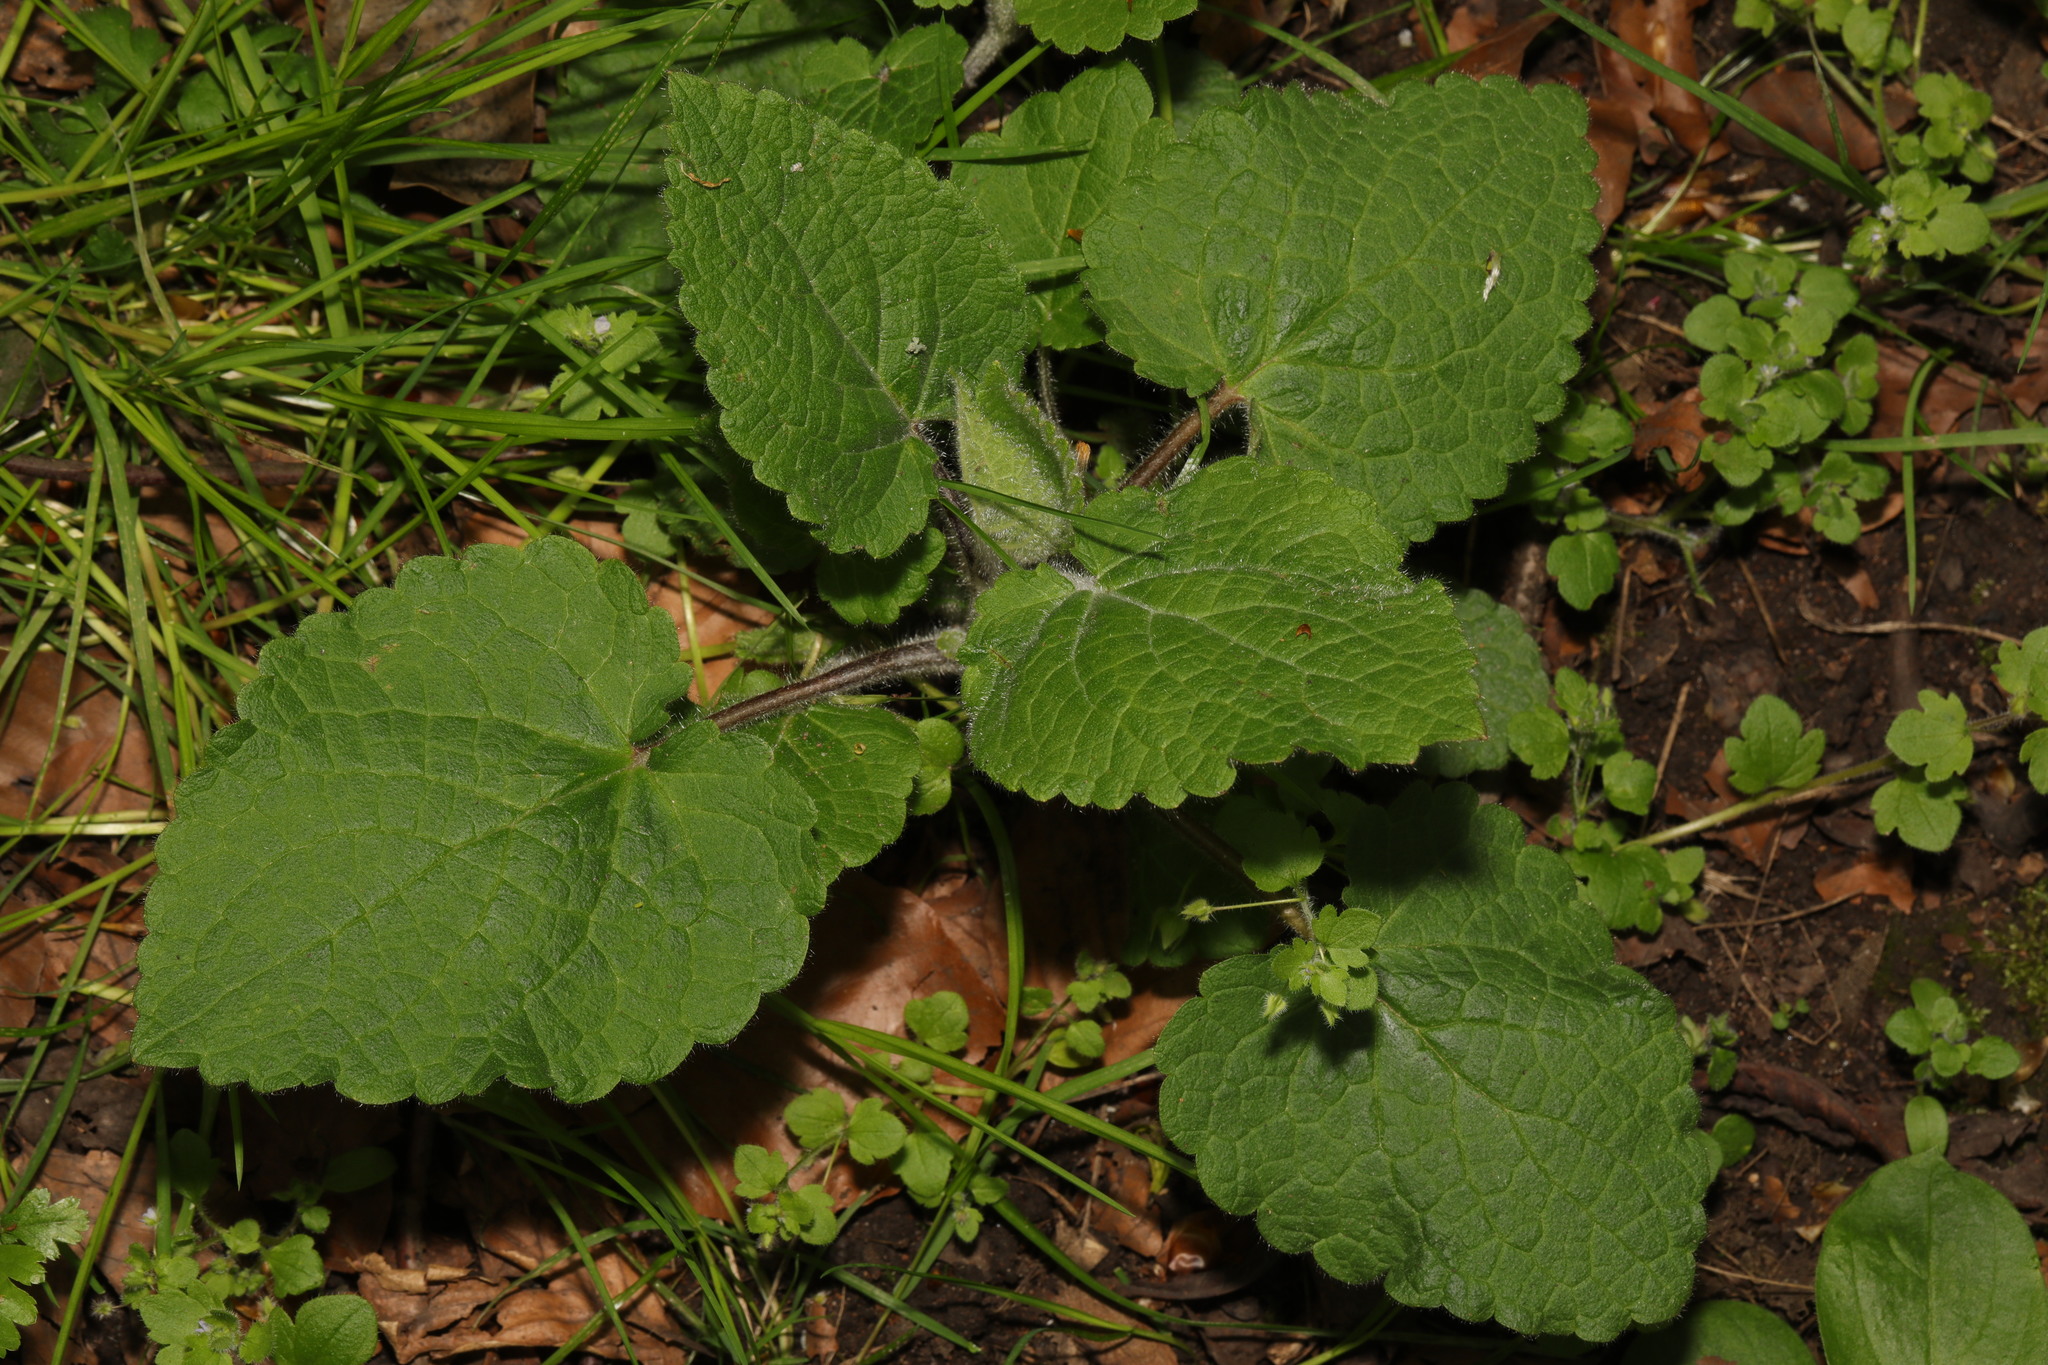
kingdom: Plantae
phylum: Tracheophyta
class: Magnoliopsida
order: Lamiales
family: Lamiaceae
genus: Stachys
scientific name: Stachys sylvatica
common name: Hedge woundwort
